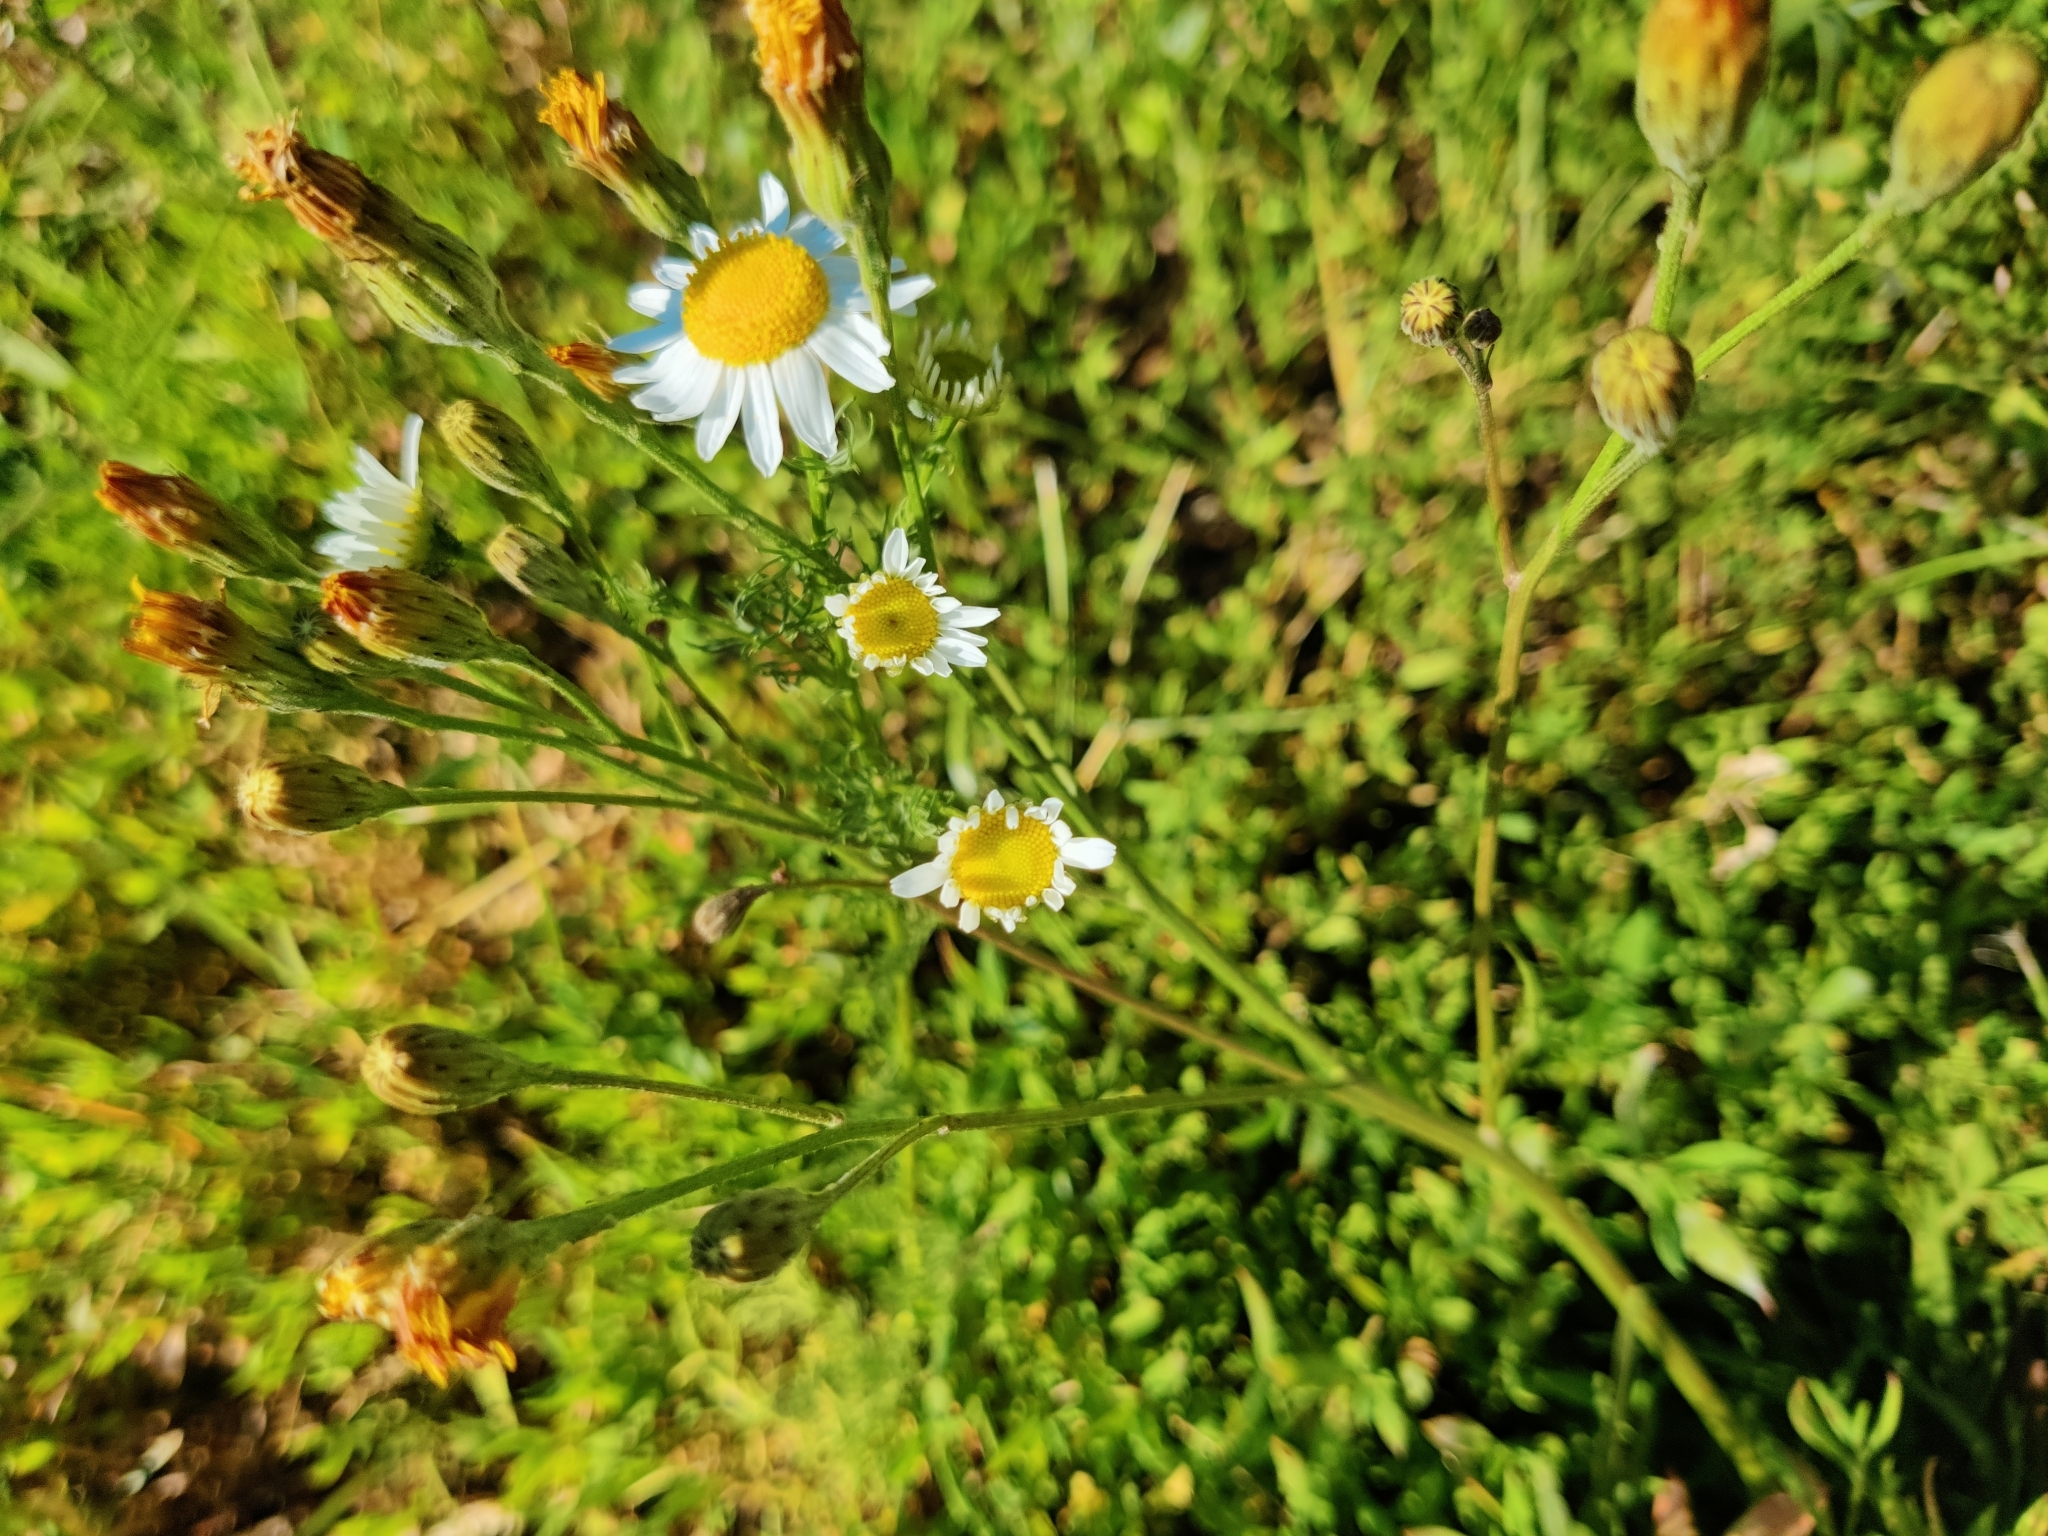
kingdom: Plantae
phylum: Tracheophyta
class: Magnoliopsida
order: Asterales
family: Asteraceae
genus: Tripleurospermum
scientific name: Tripleurospermum inodorum
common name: Scentless mayweed
